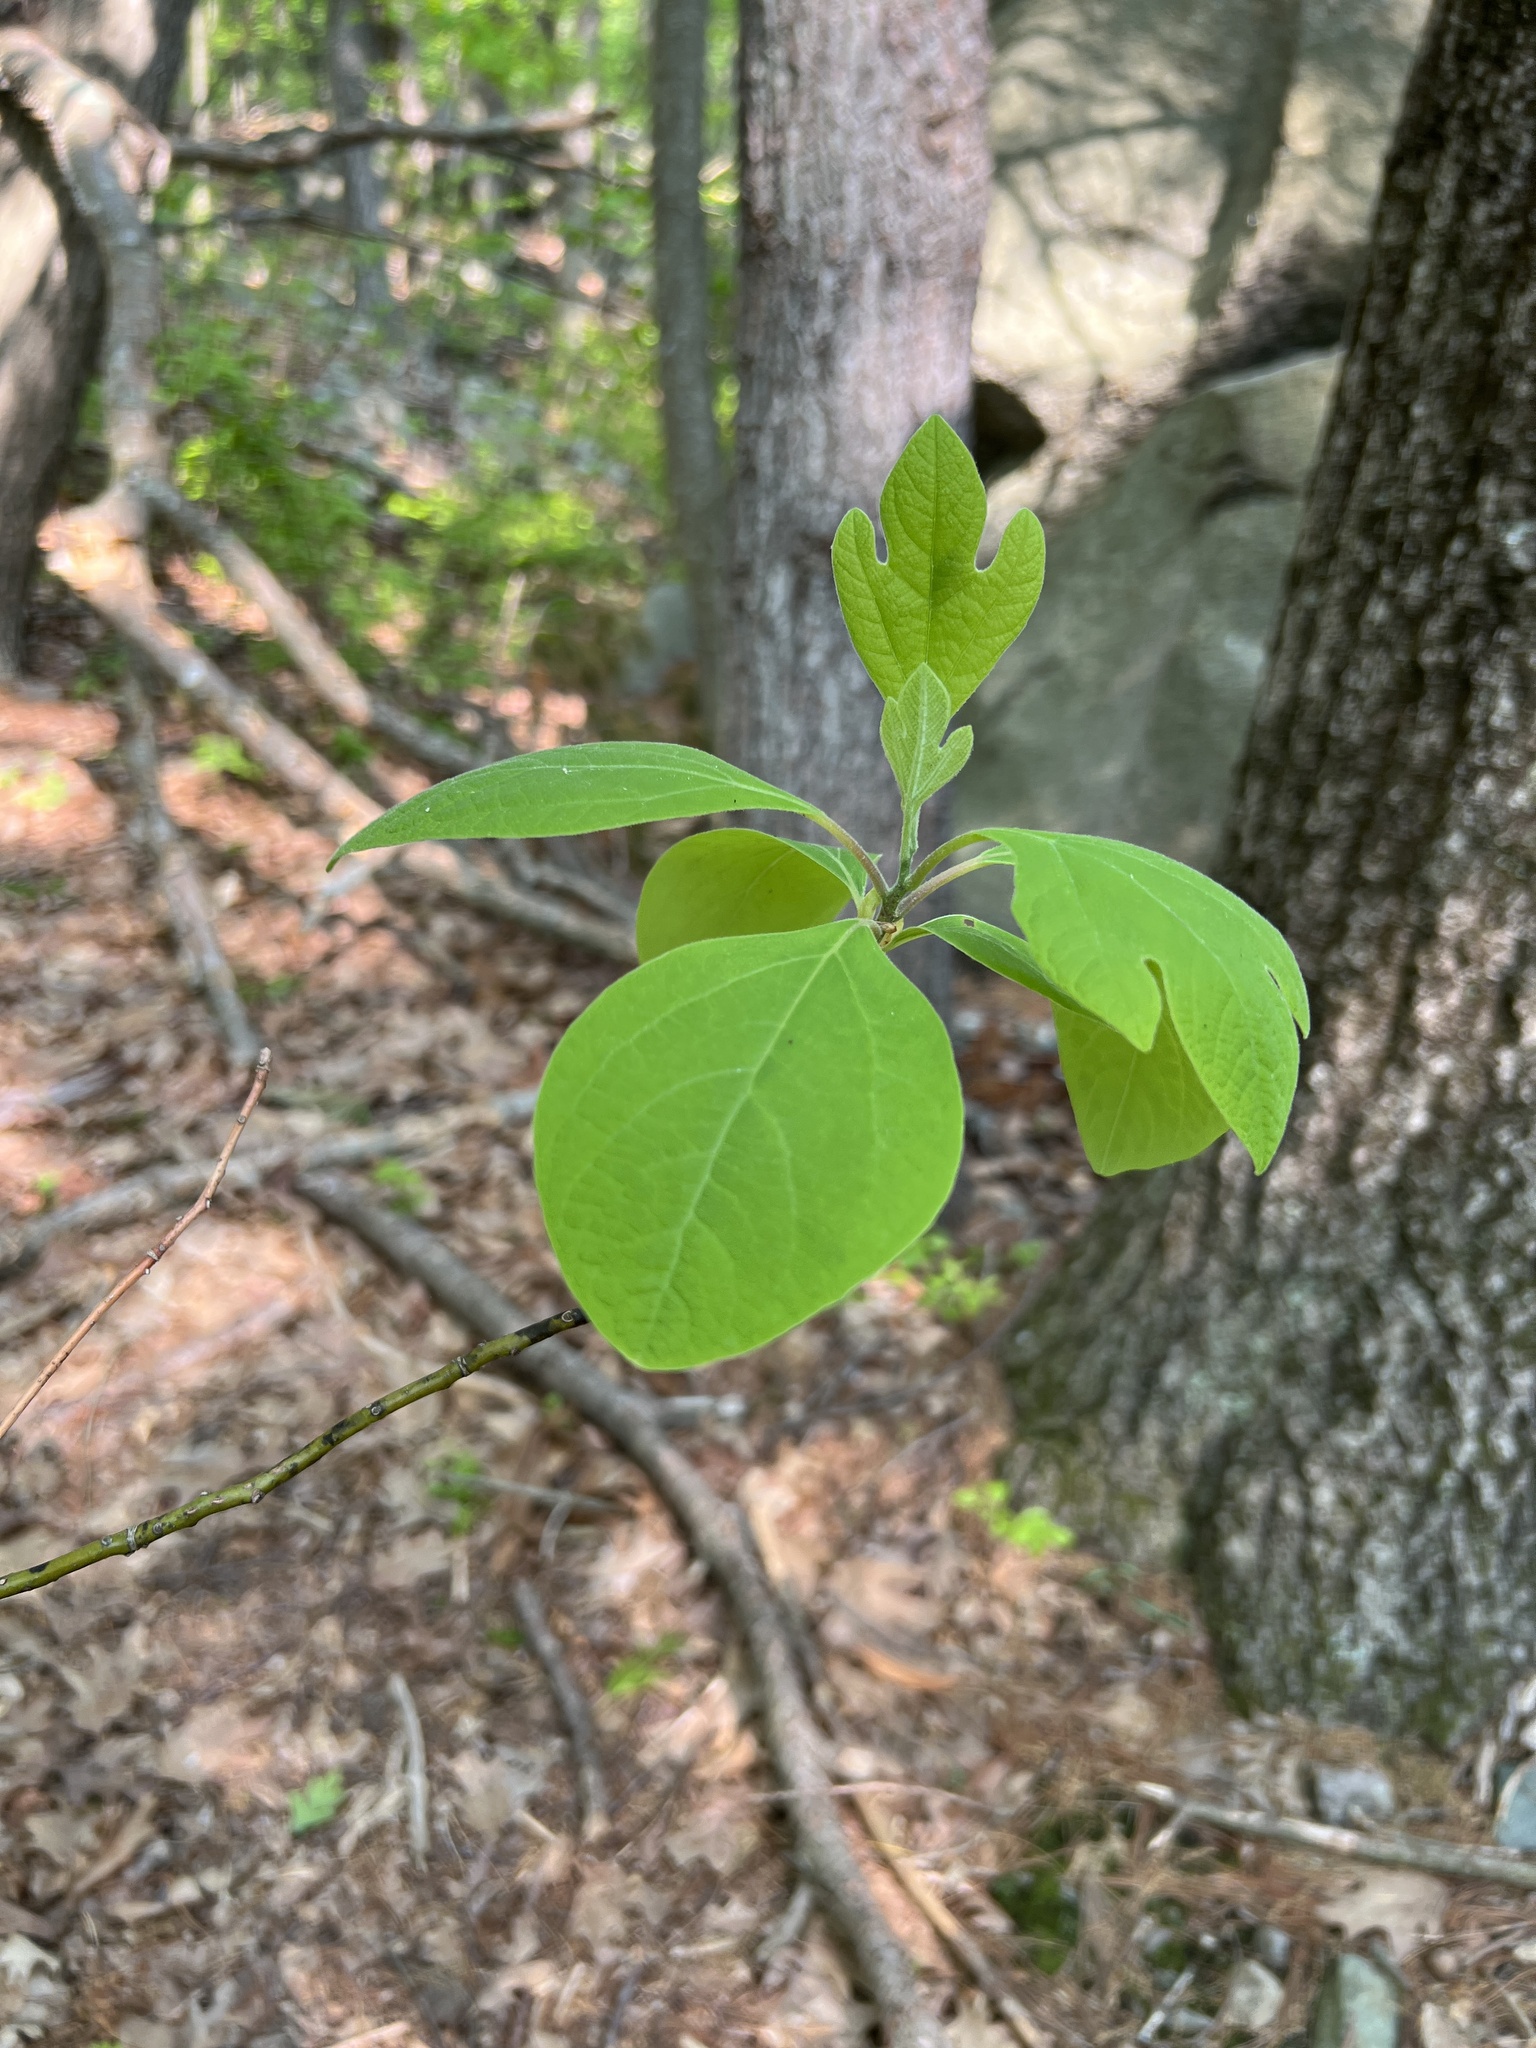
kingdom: Plantae
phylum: Tracheophyta
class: Magnoliopsida
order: Laurales
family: Lauraceae
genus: Sassafras
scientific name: Sassafras albidum
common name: Sassafras
